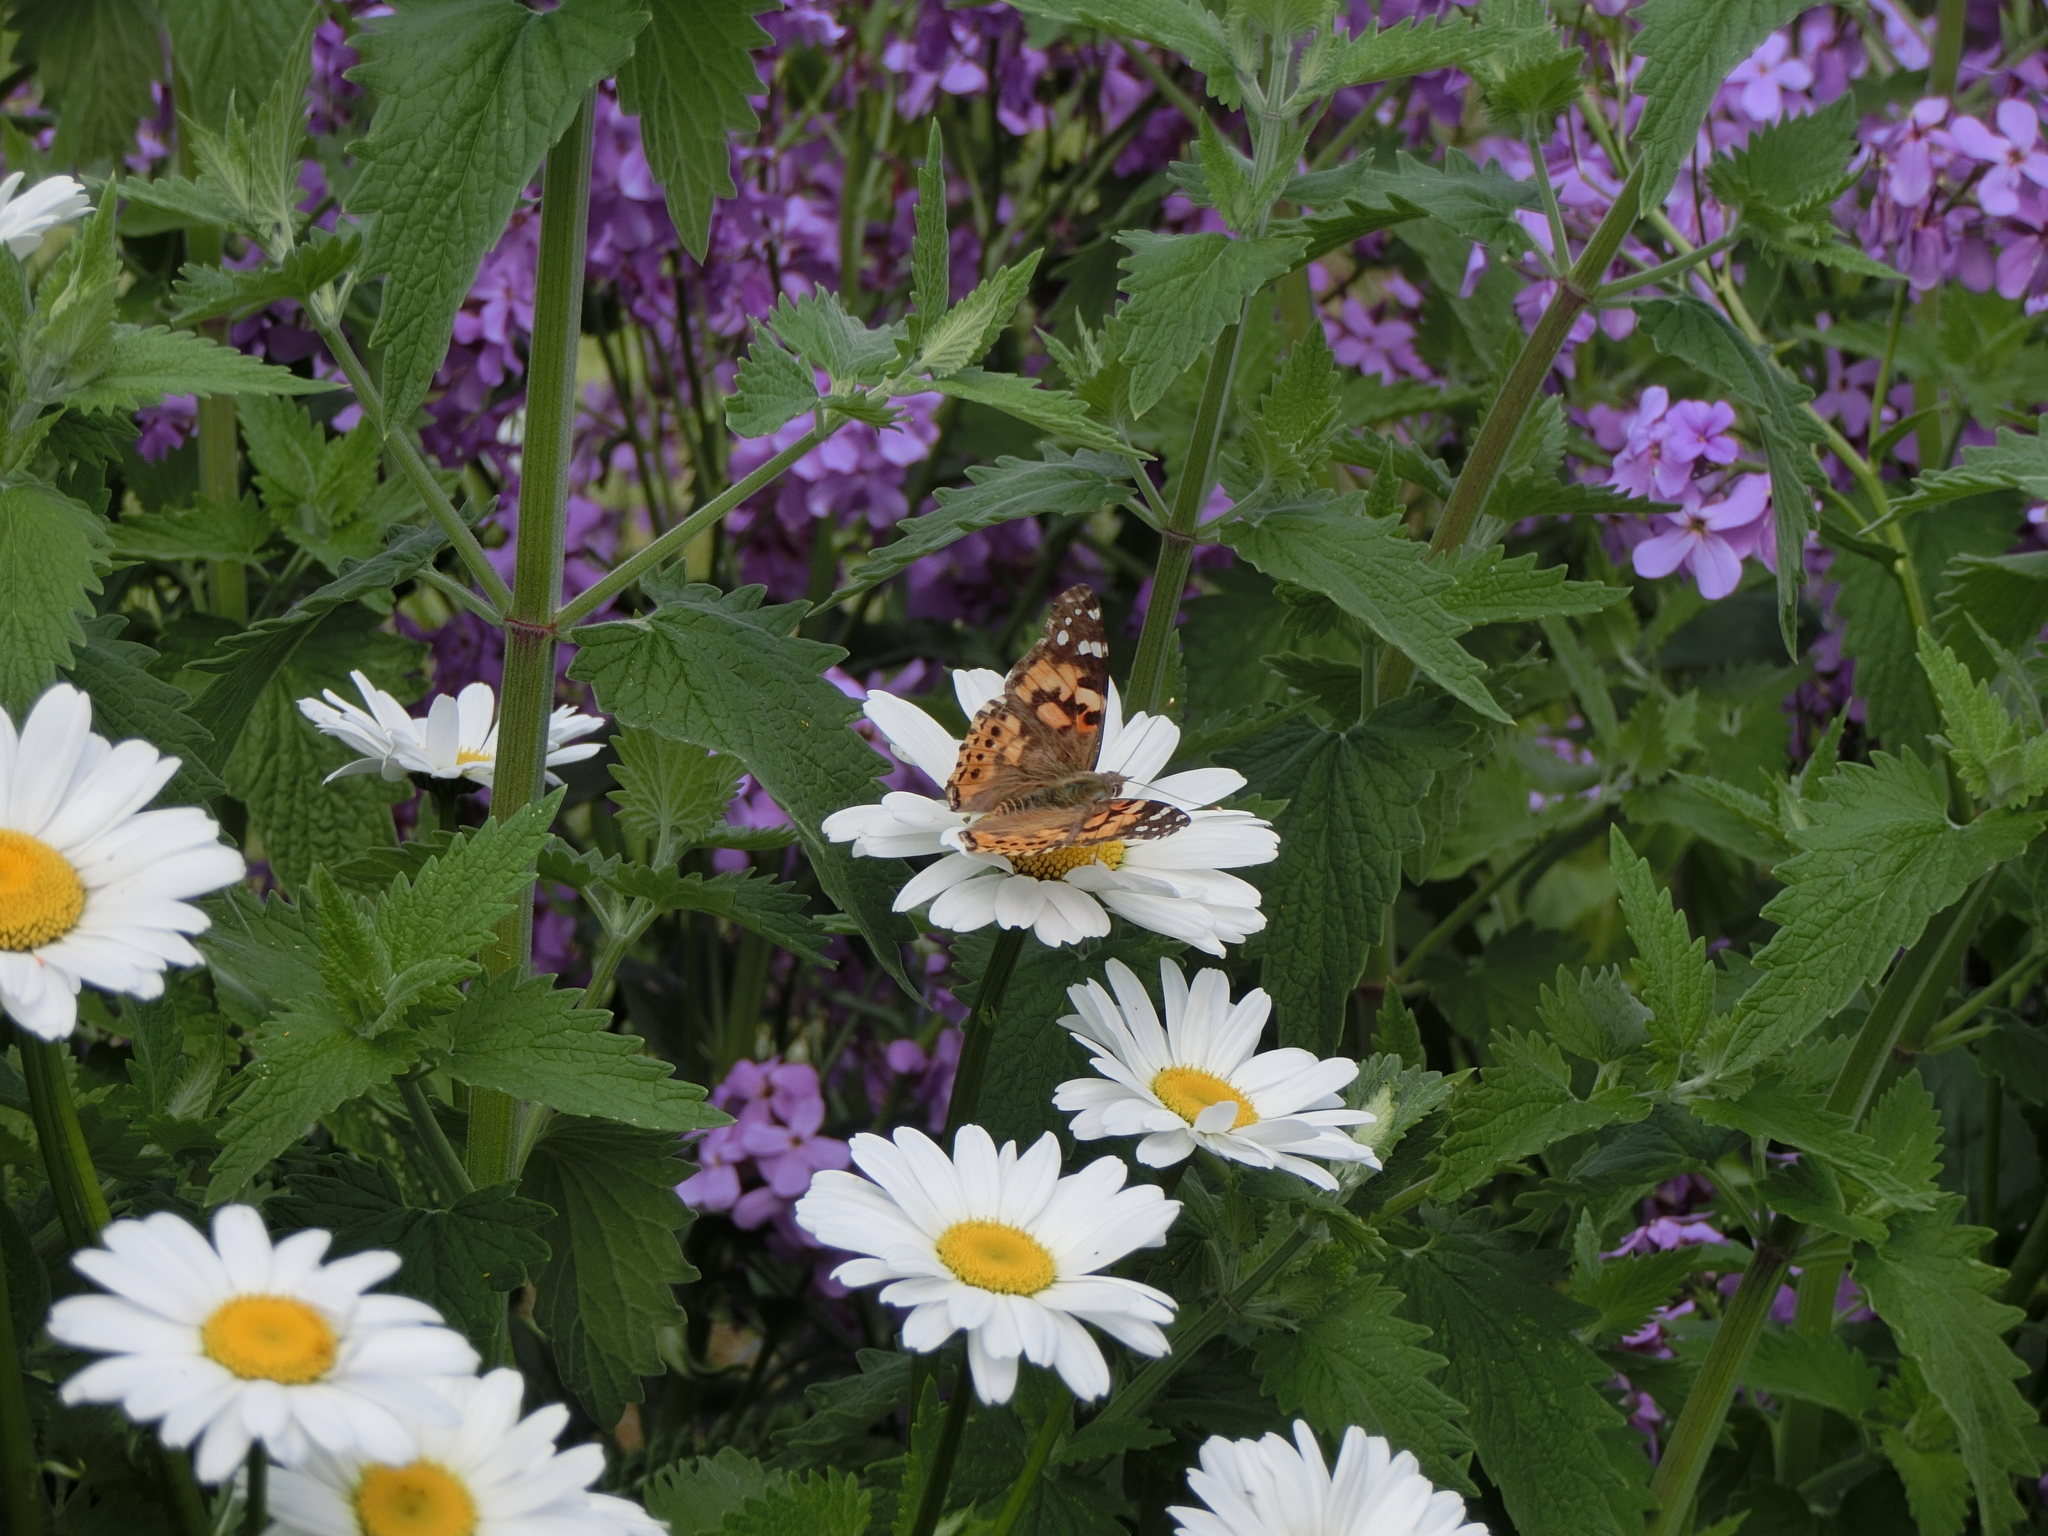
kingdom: Animalia
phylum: Arthropoda
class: Insecta
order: Lepidoptera
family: Nymphalidae
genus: Vanessa
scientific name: Vanessa cardui
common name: Painted lady
